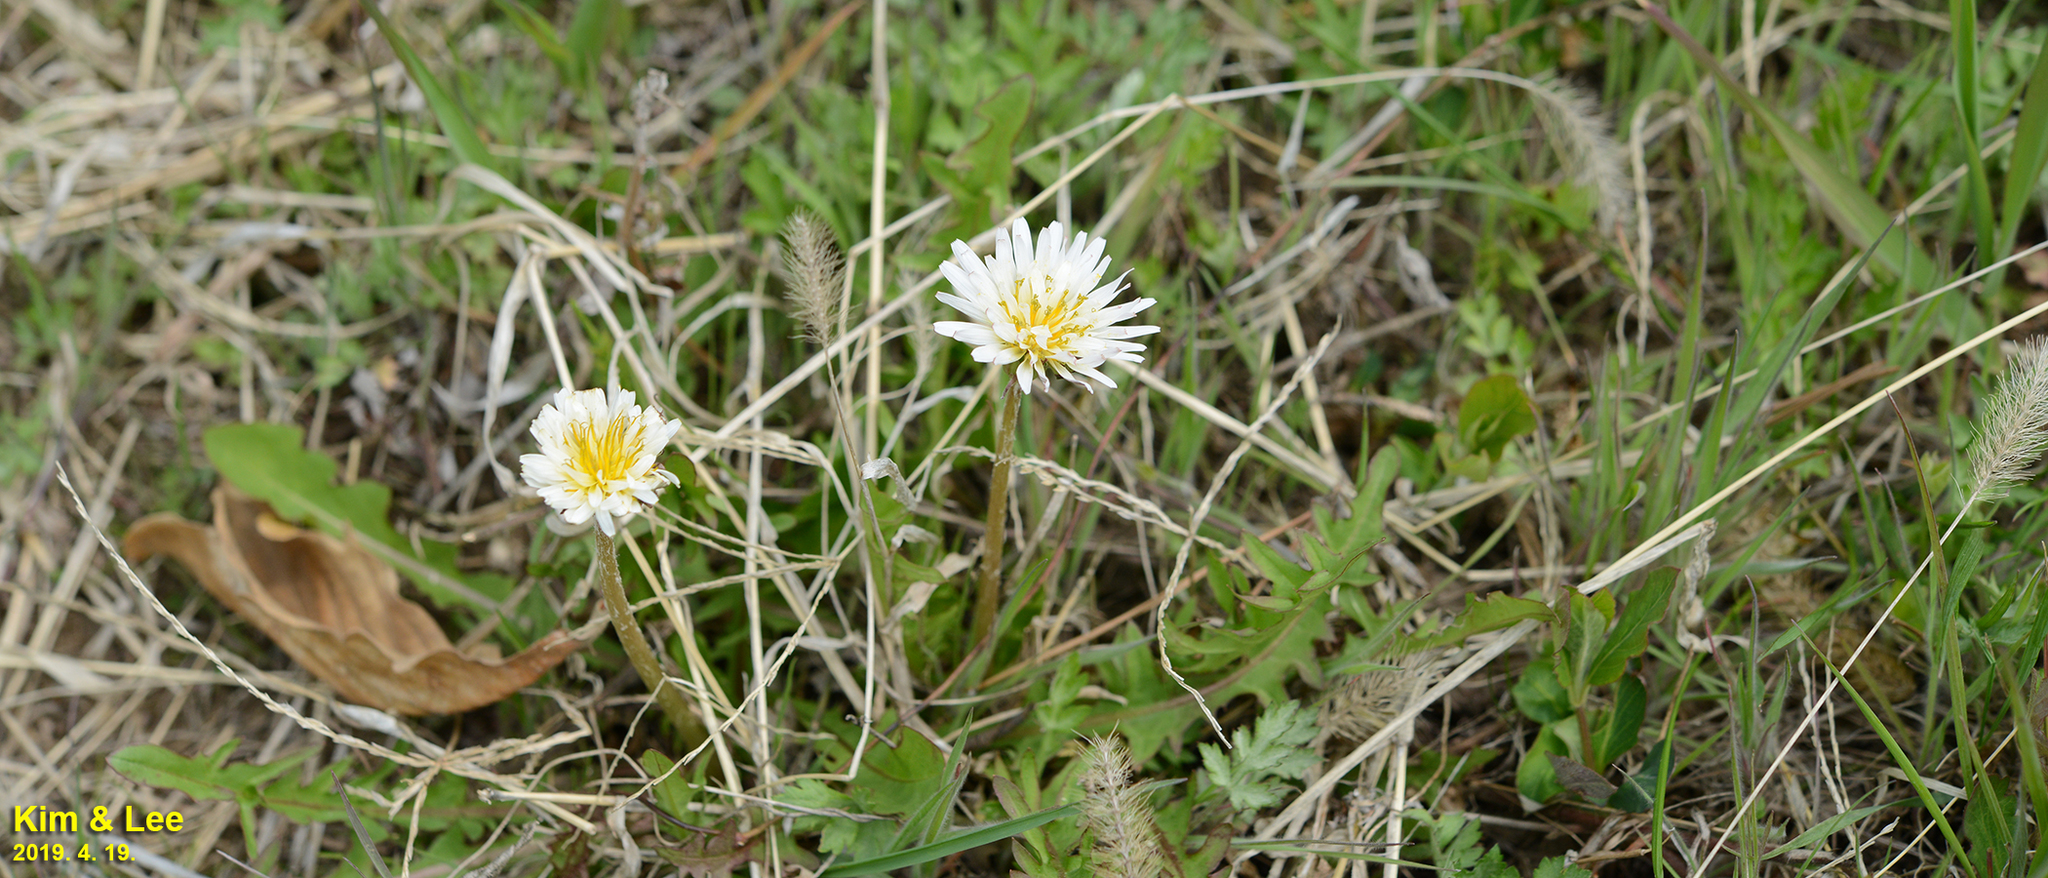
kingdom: Plantae
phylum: Tracheophyta
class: Magnoliopsida
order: Asterales
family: Asteraceae
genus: Taraxacum
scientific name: Taraxacum coreanum
